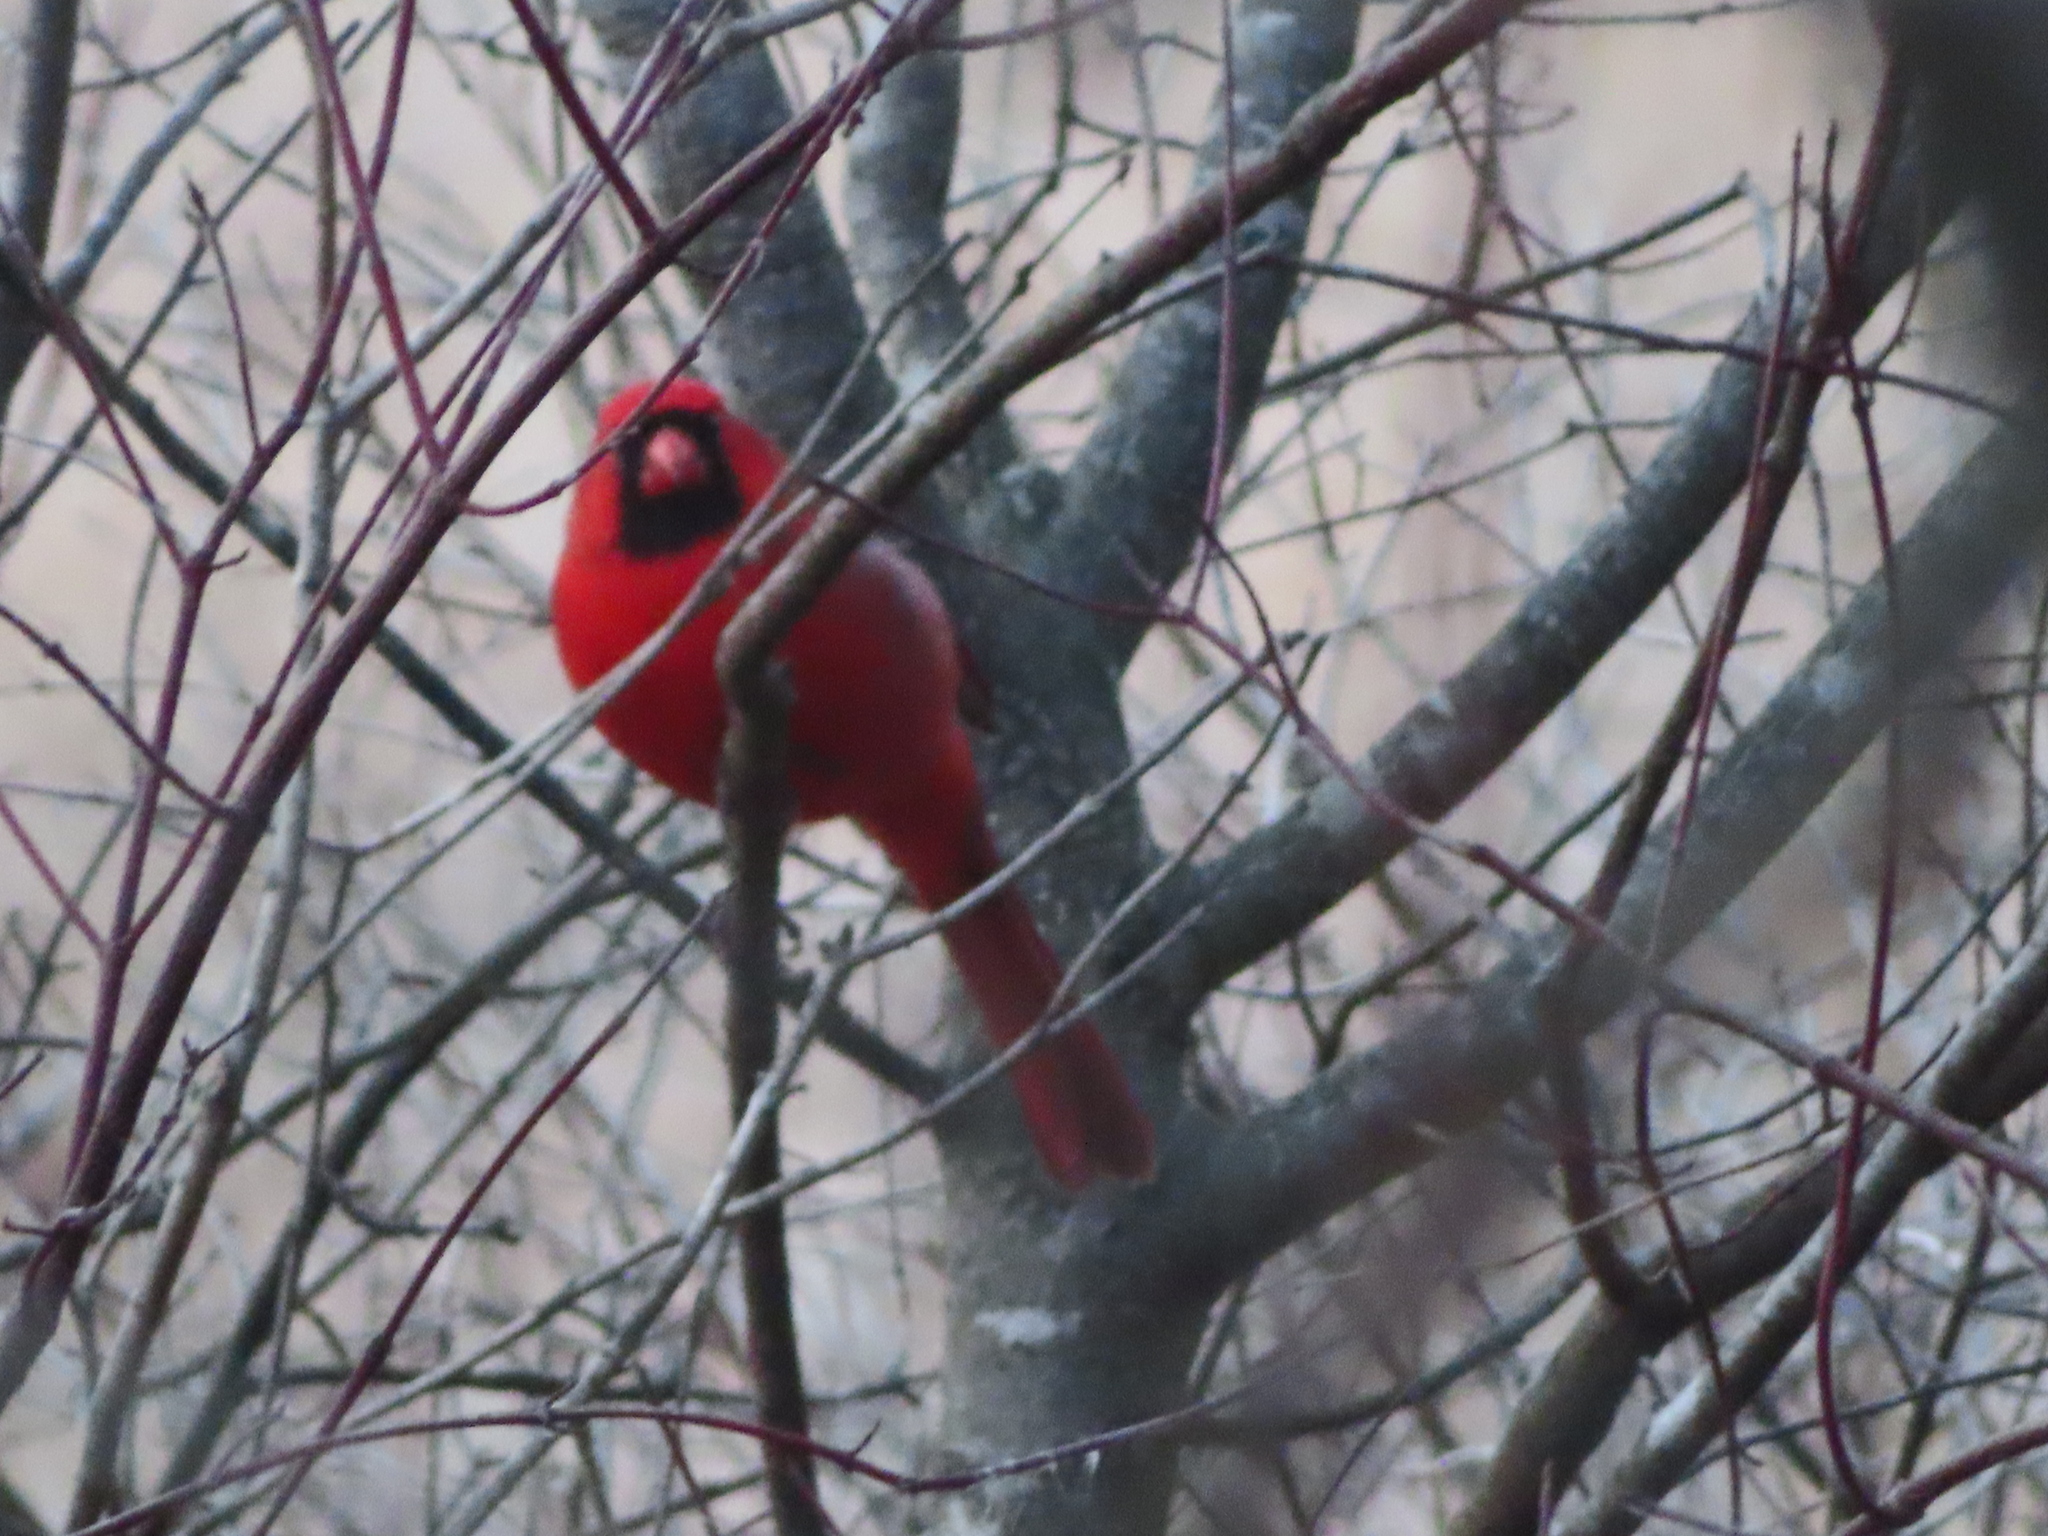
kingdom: Animalia
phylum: Chordata
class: Aves
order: Passeriformes
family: Cardinalidae
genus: Cardinalis
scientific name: Cardinalis cardinalis
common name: Northern cardinal
